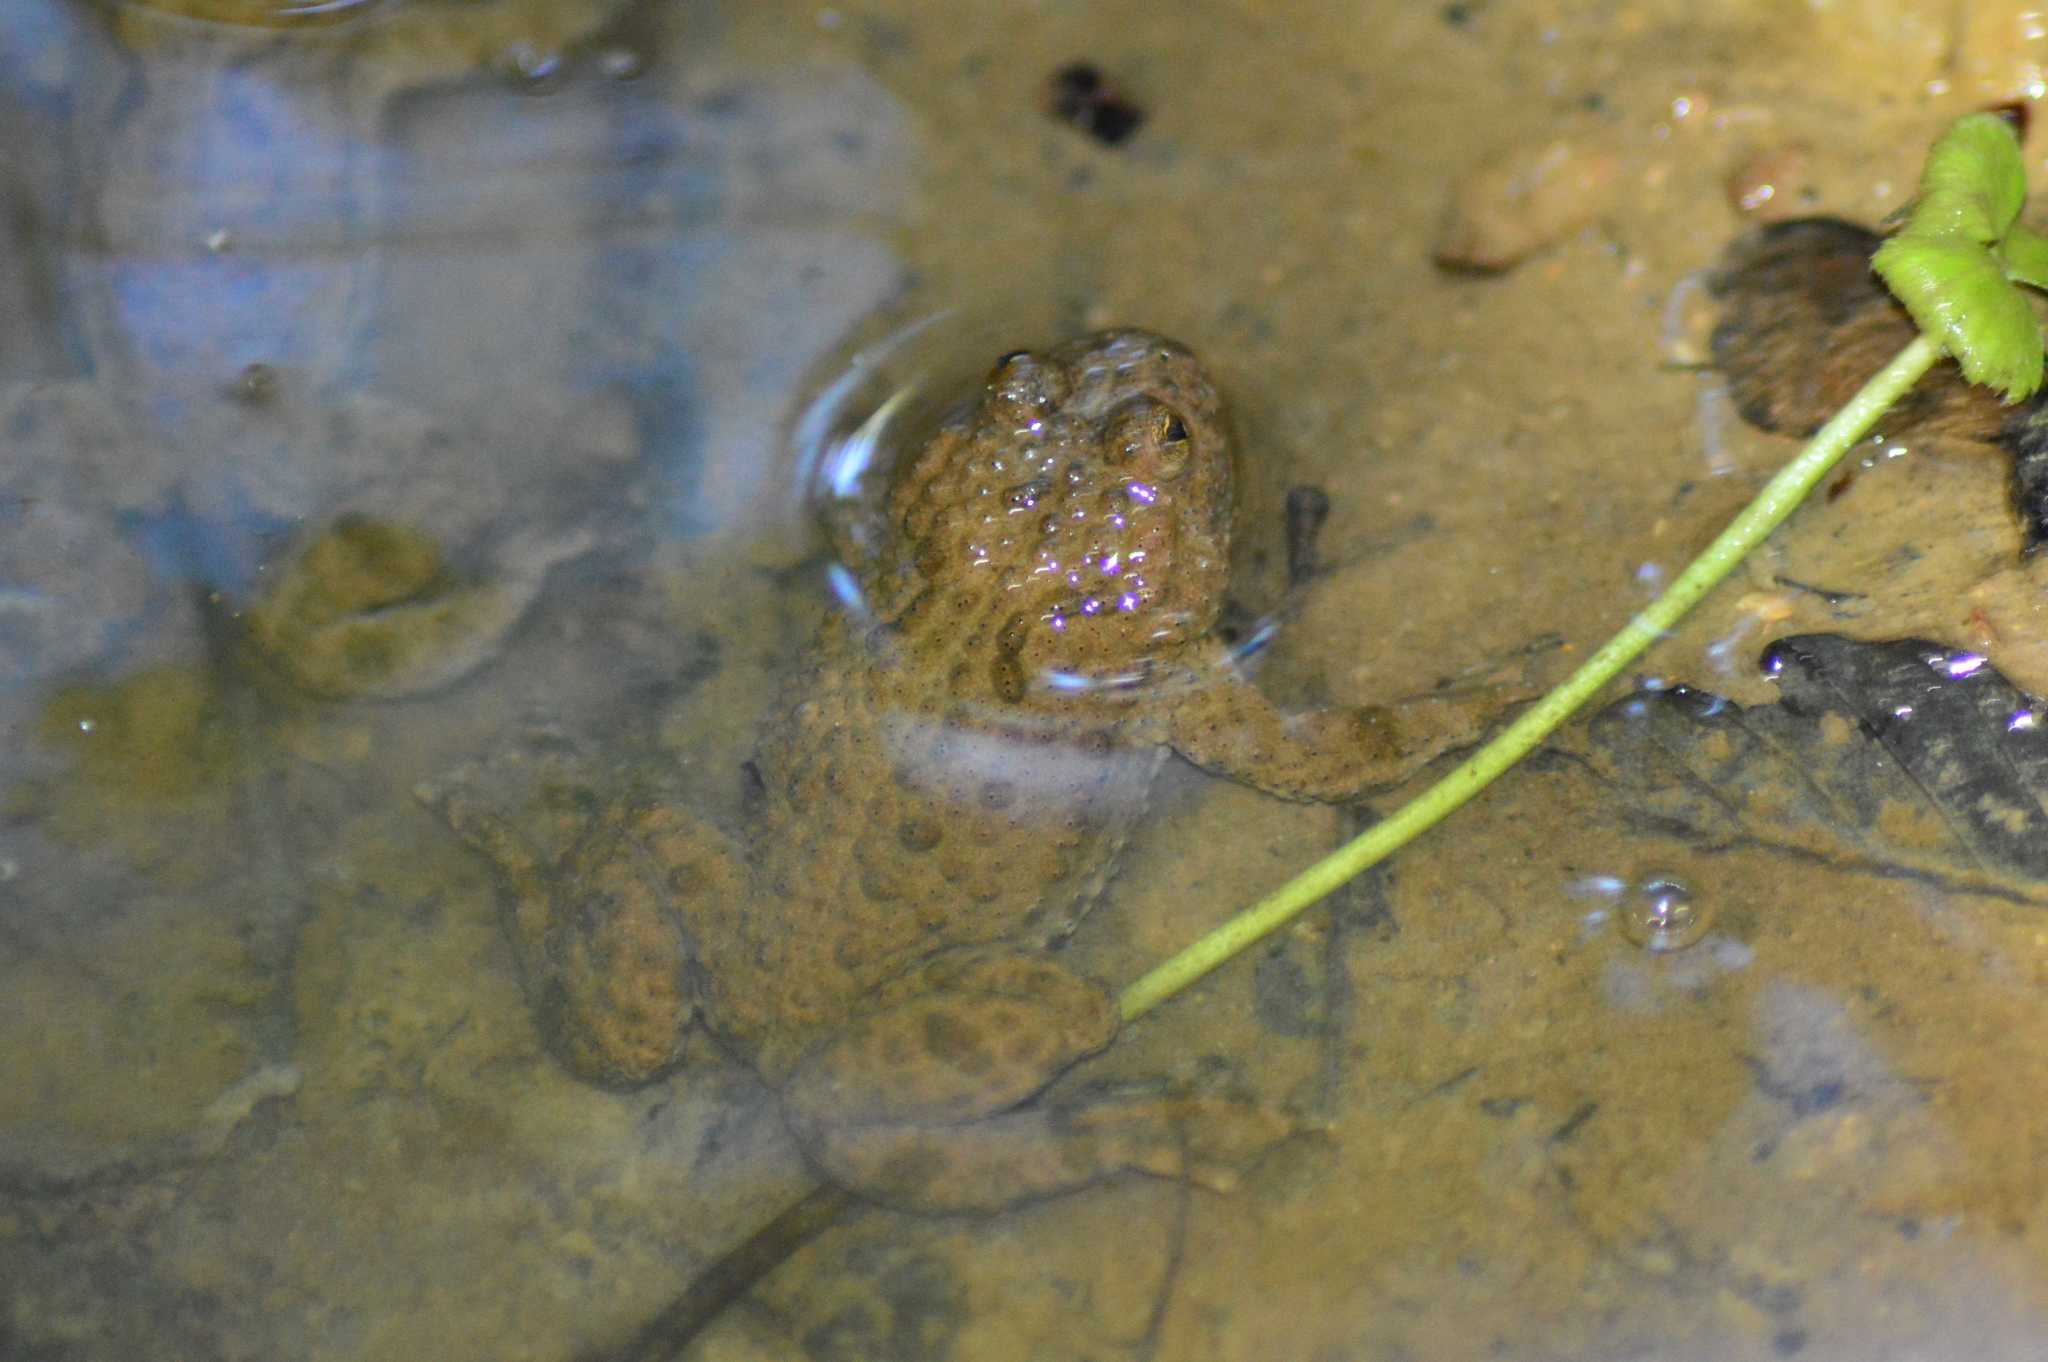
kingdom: Animalia
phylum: Chordata
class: Amphibia
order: Anura
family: Bombinatoridae
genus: Bombina
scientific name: Bombina variegata
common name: Yellow-bellied toad
